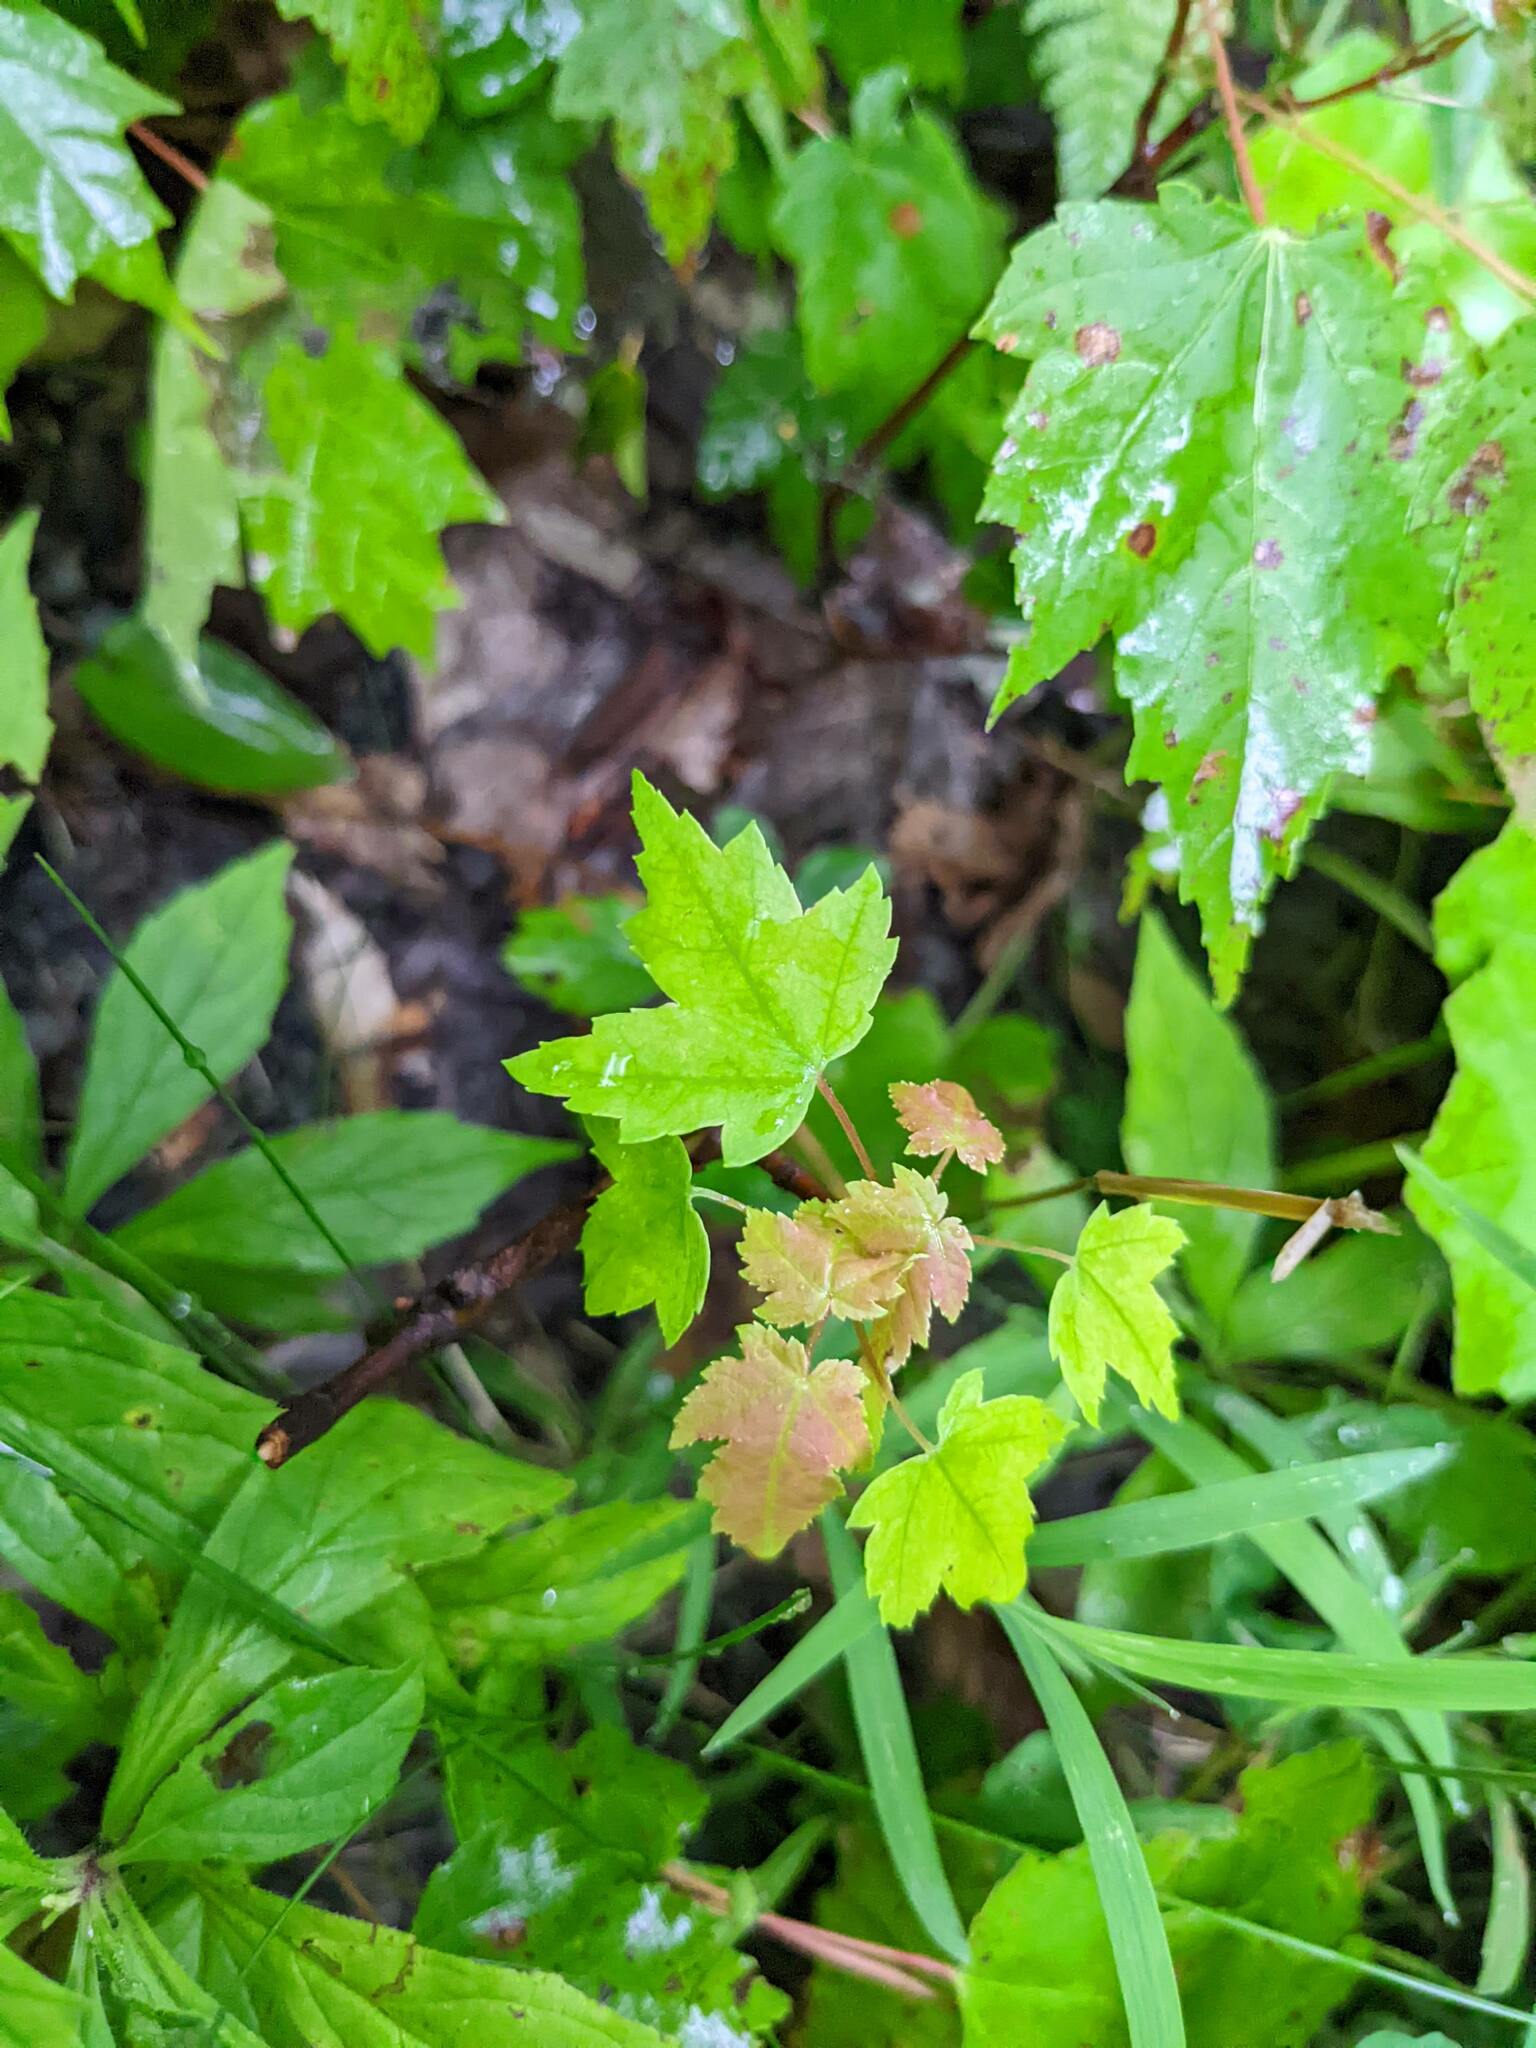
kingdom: Plantae
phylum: Tracheophyta
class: Magnoliopsida
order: Sapindales
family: Sapindaceae
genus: Acer
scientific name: Acer rubrum
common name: Red maple
